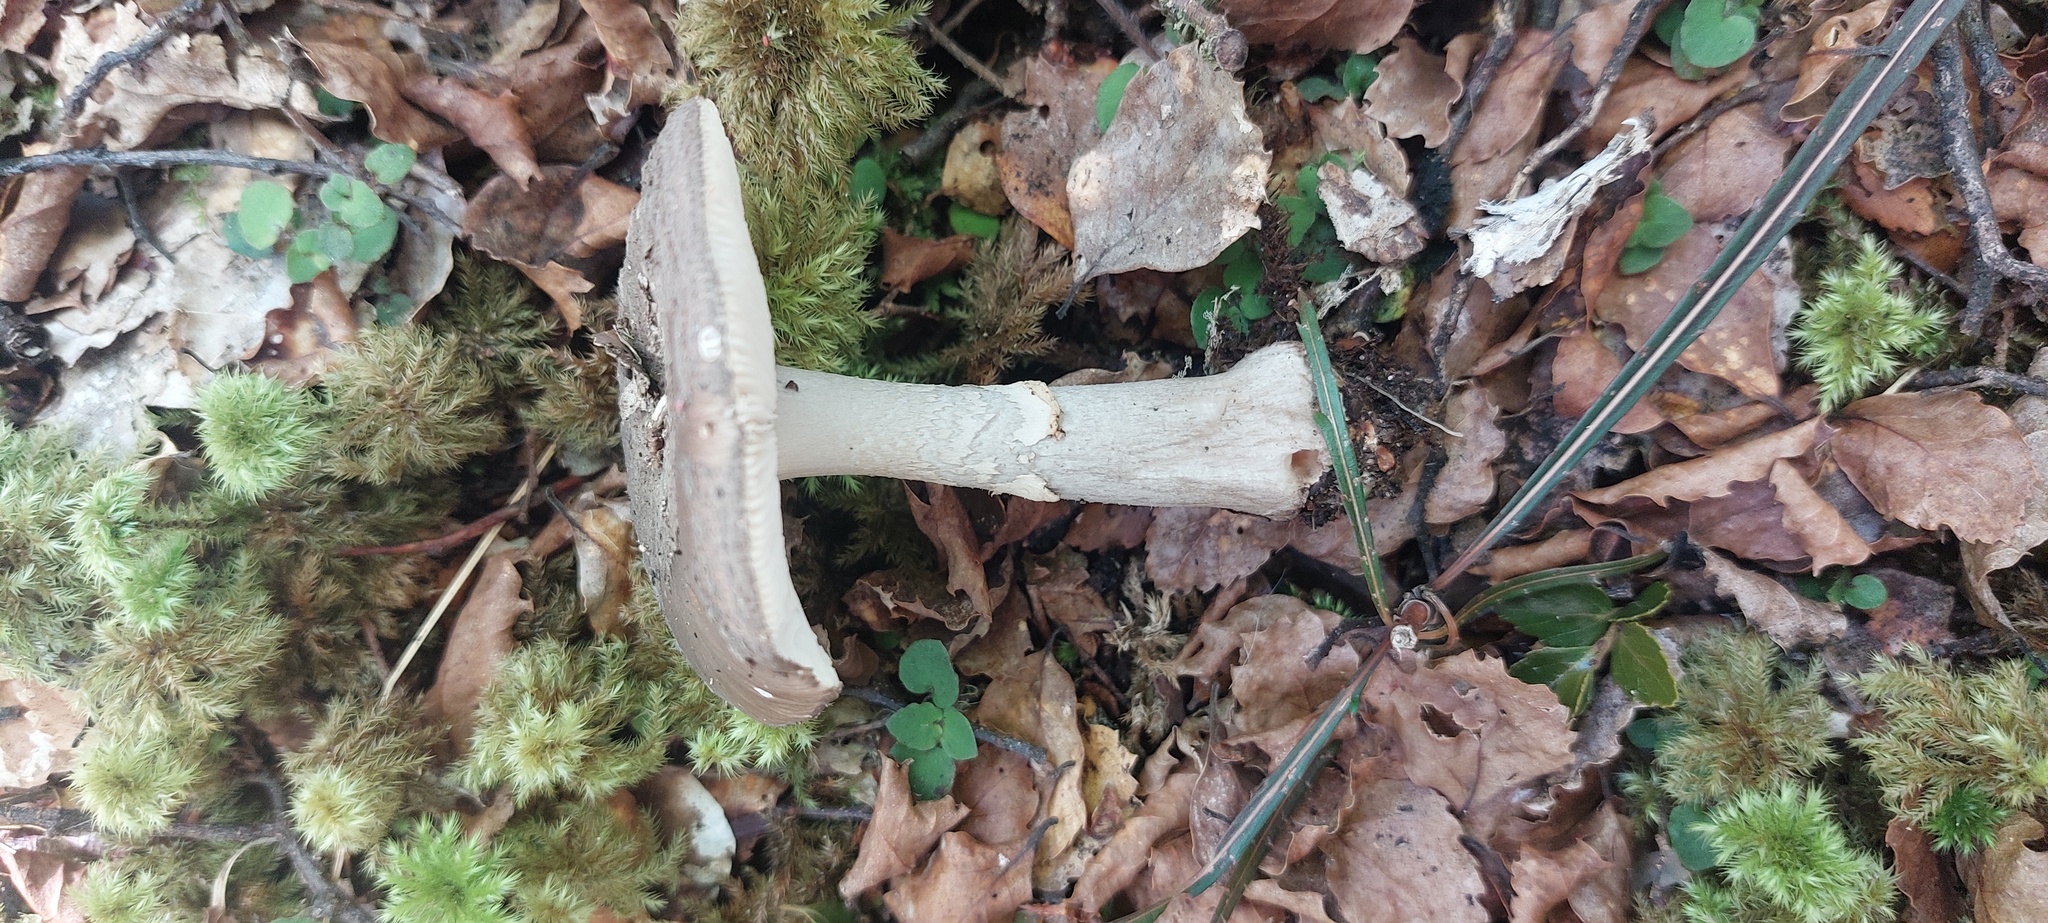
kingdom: Fungi
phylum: Basidiomycota
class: Agaricomycetes
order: Agaricales
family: Amanitaceae
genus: Amanita
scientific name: Amanita nothofagi
